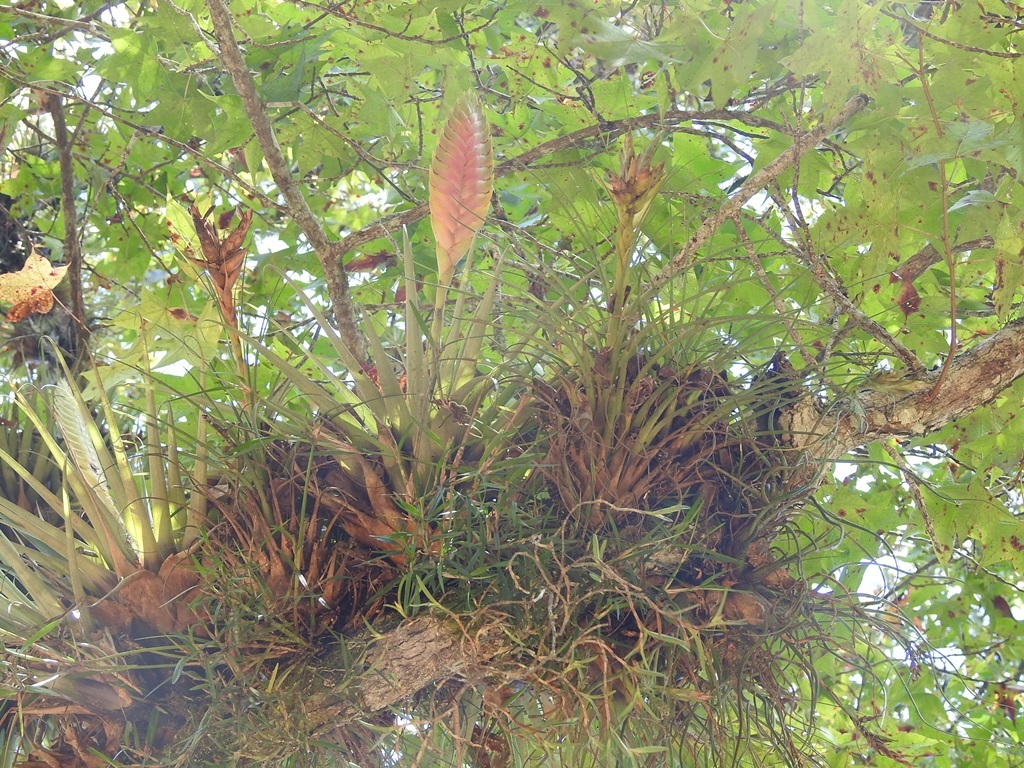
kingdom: Plantae
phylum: Tracheophyta
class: Liliopsida
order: Poales
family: Bromeliaceae
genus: Tillandsia
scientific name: Tillandsia lampropoda
